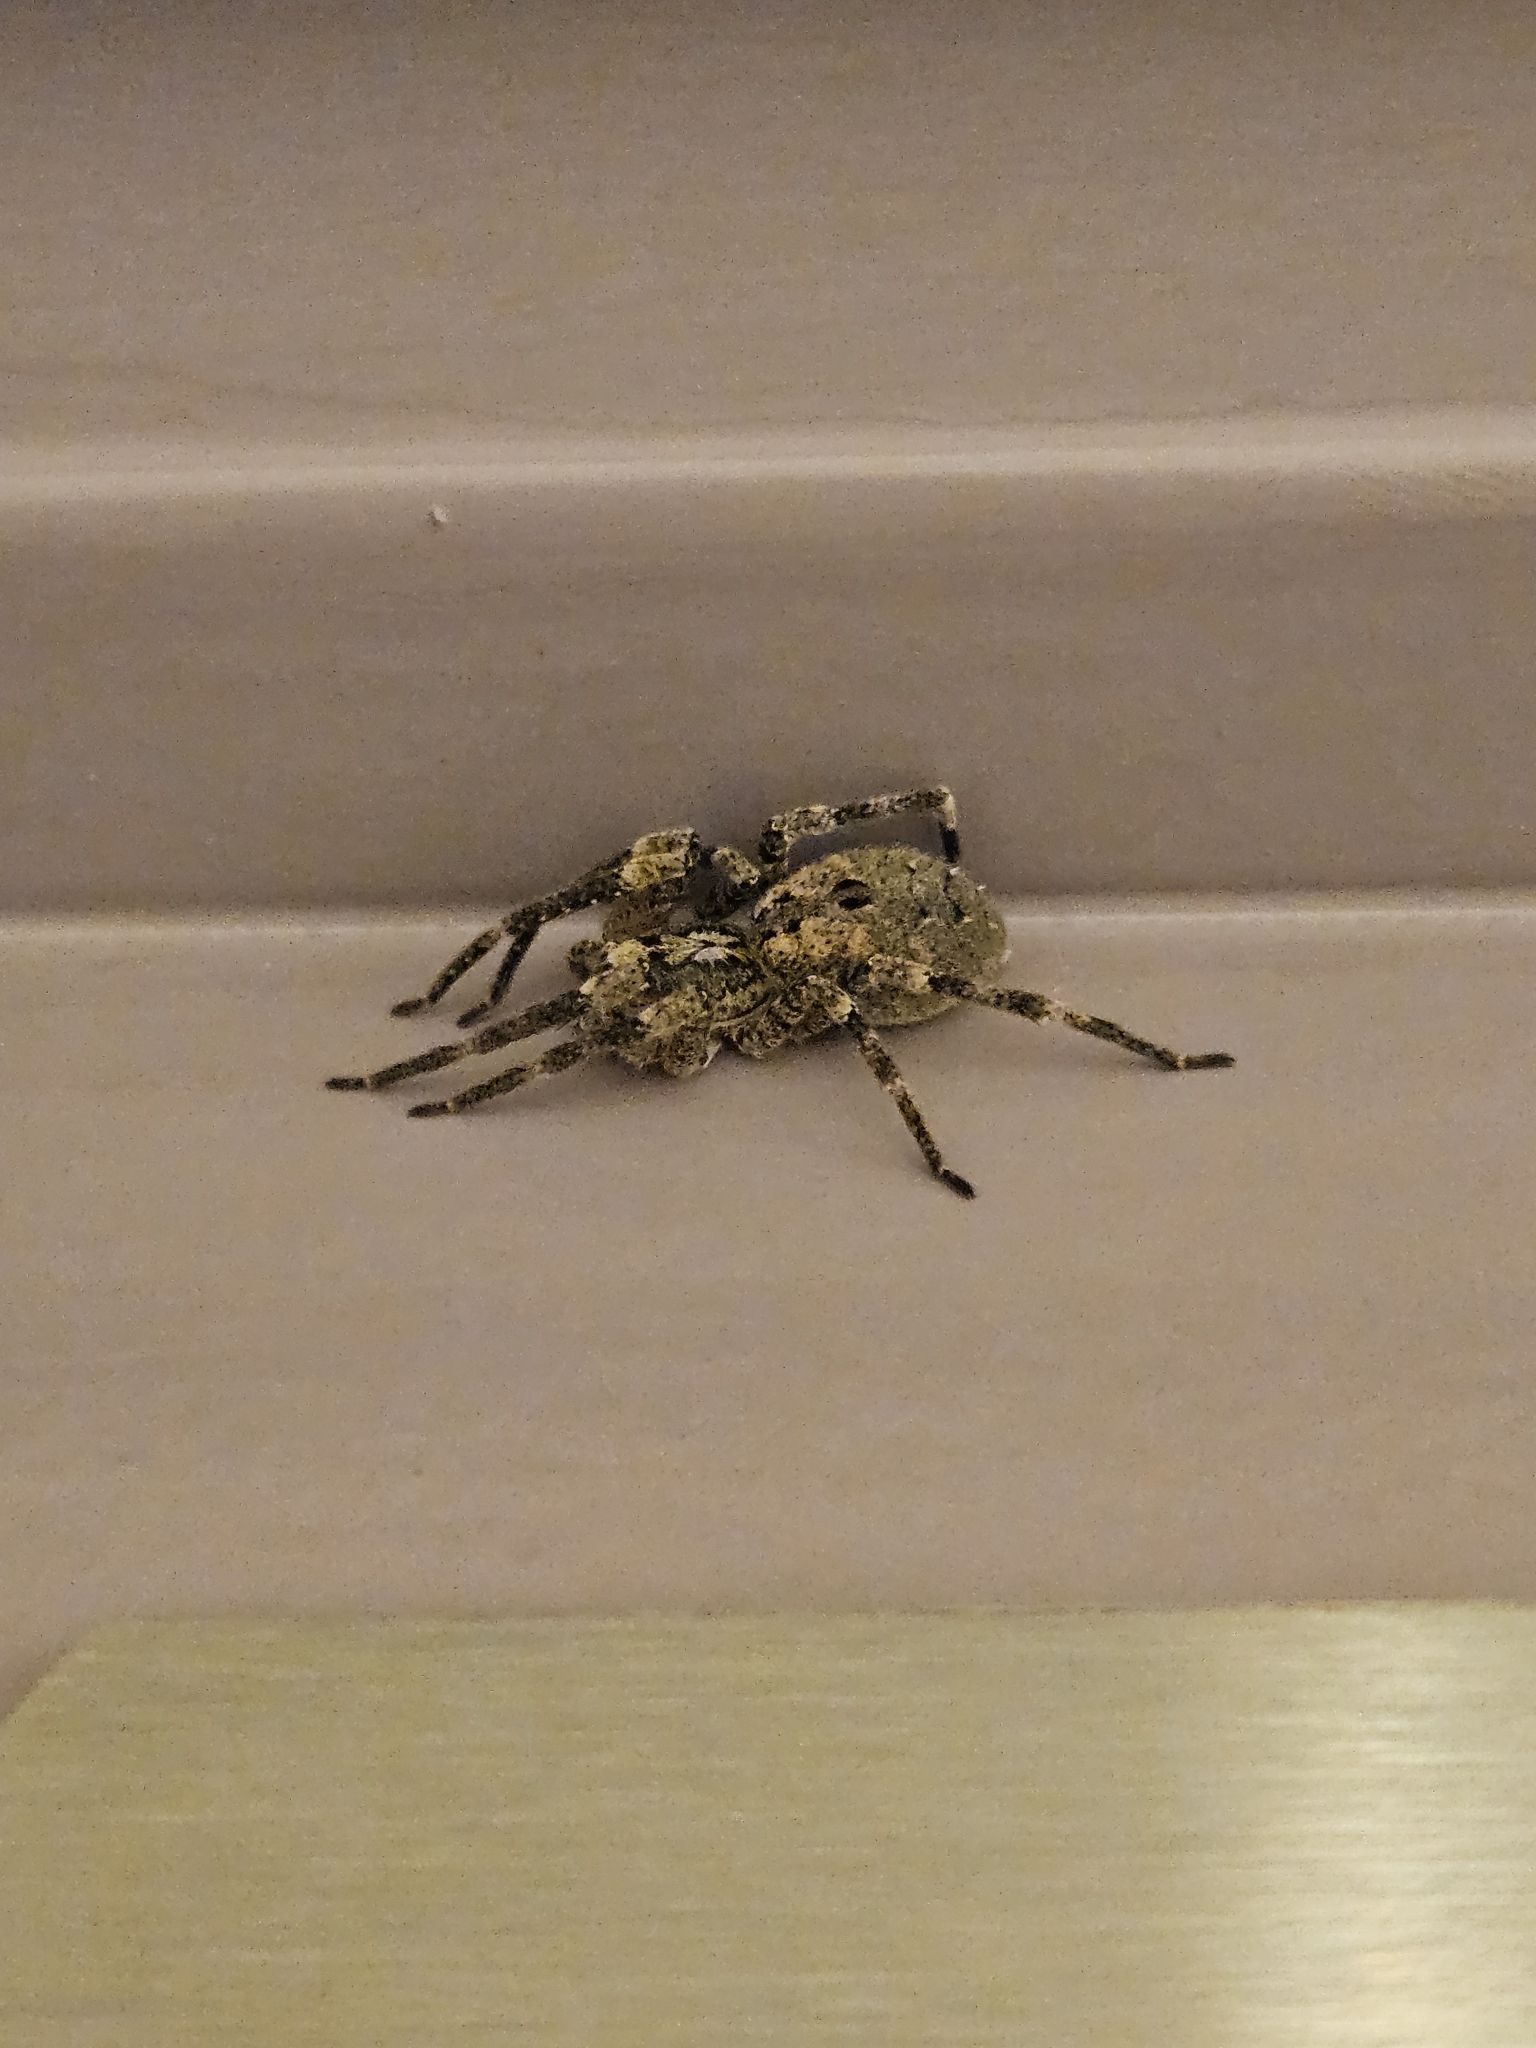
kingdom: Animalia
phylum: Arthropoda
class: Arachnida
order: Araneae
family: Zoropsidae
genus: Zoropsis
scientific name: Zoropsis spinimana
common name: Zoropsid spider
